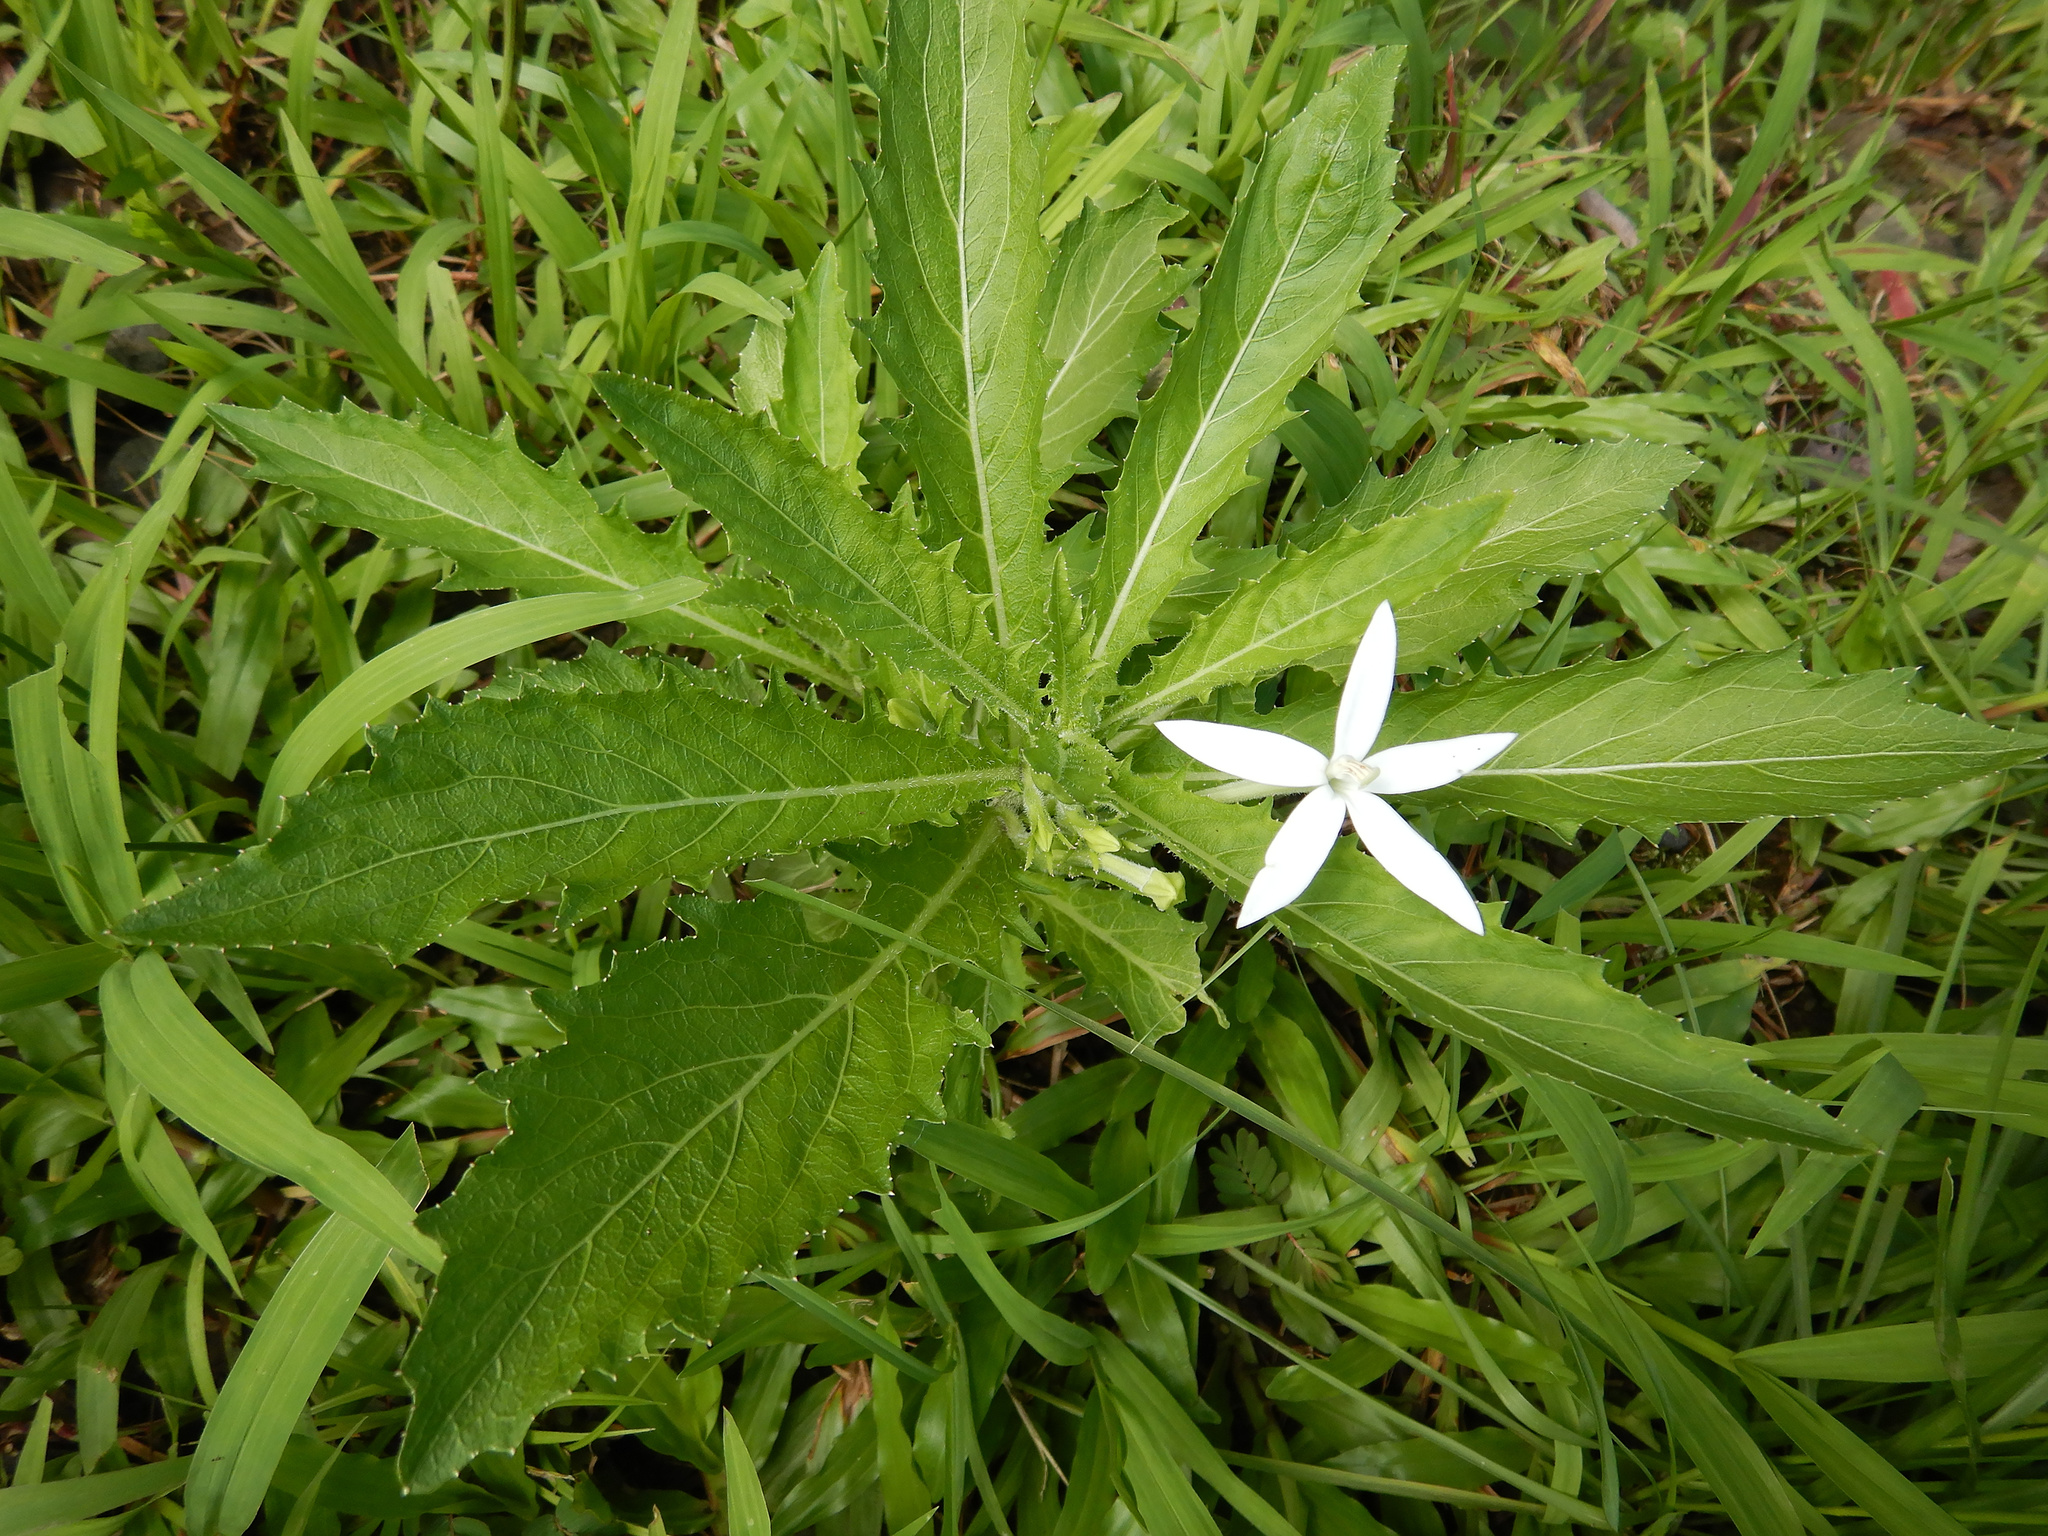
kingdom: Plantae
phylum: Tracheophyta
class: Magnoliopsida
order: Asterales
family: Campanulaceae
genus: Hippobroma
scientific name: Hippobroma longiflora
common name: Madamfate
